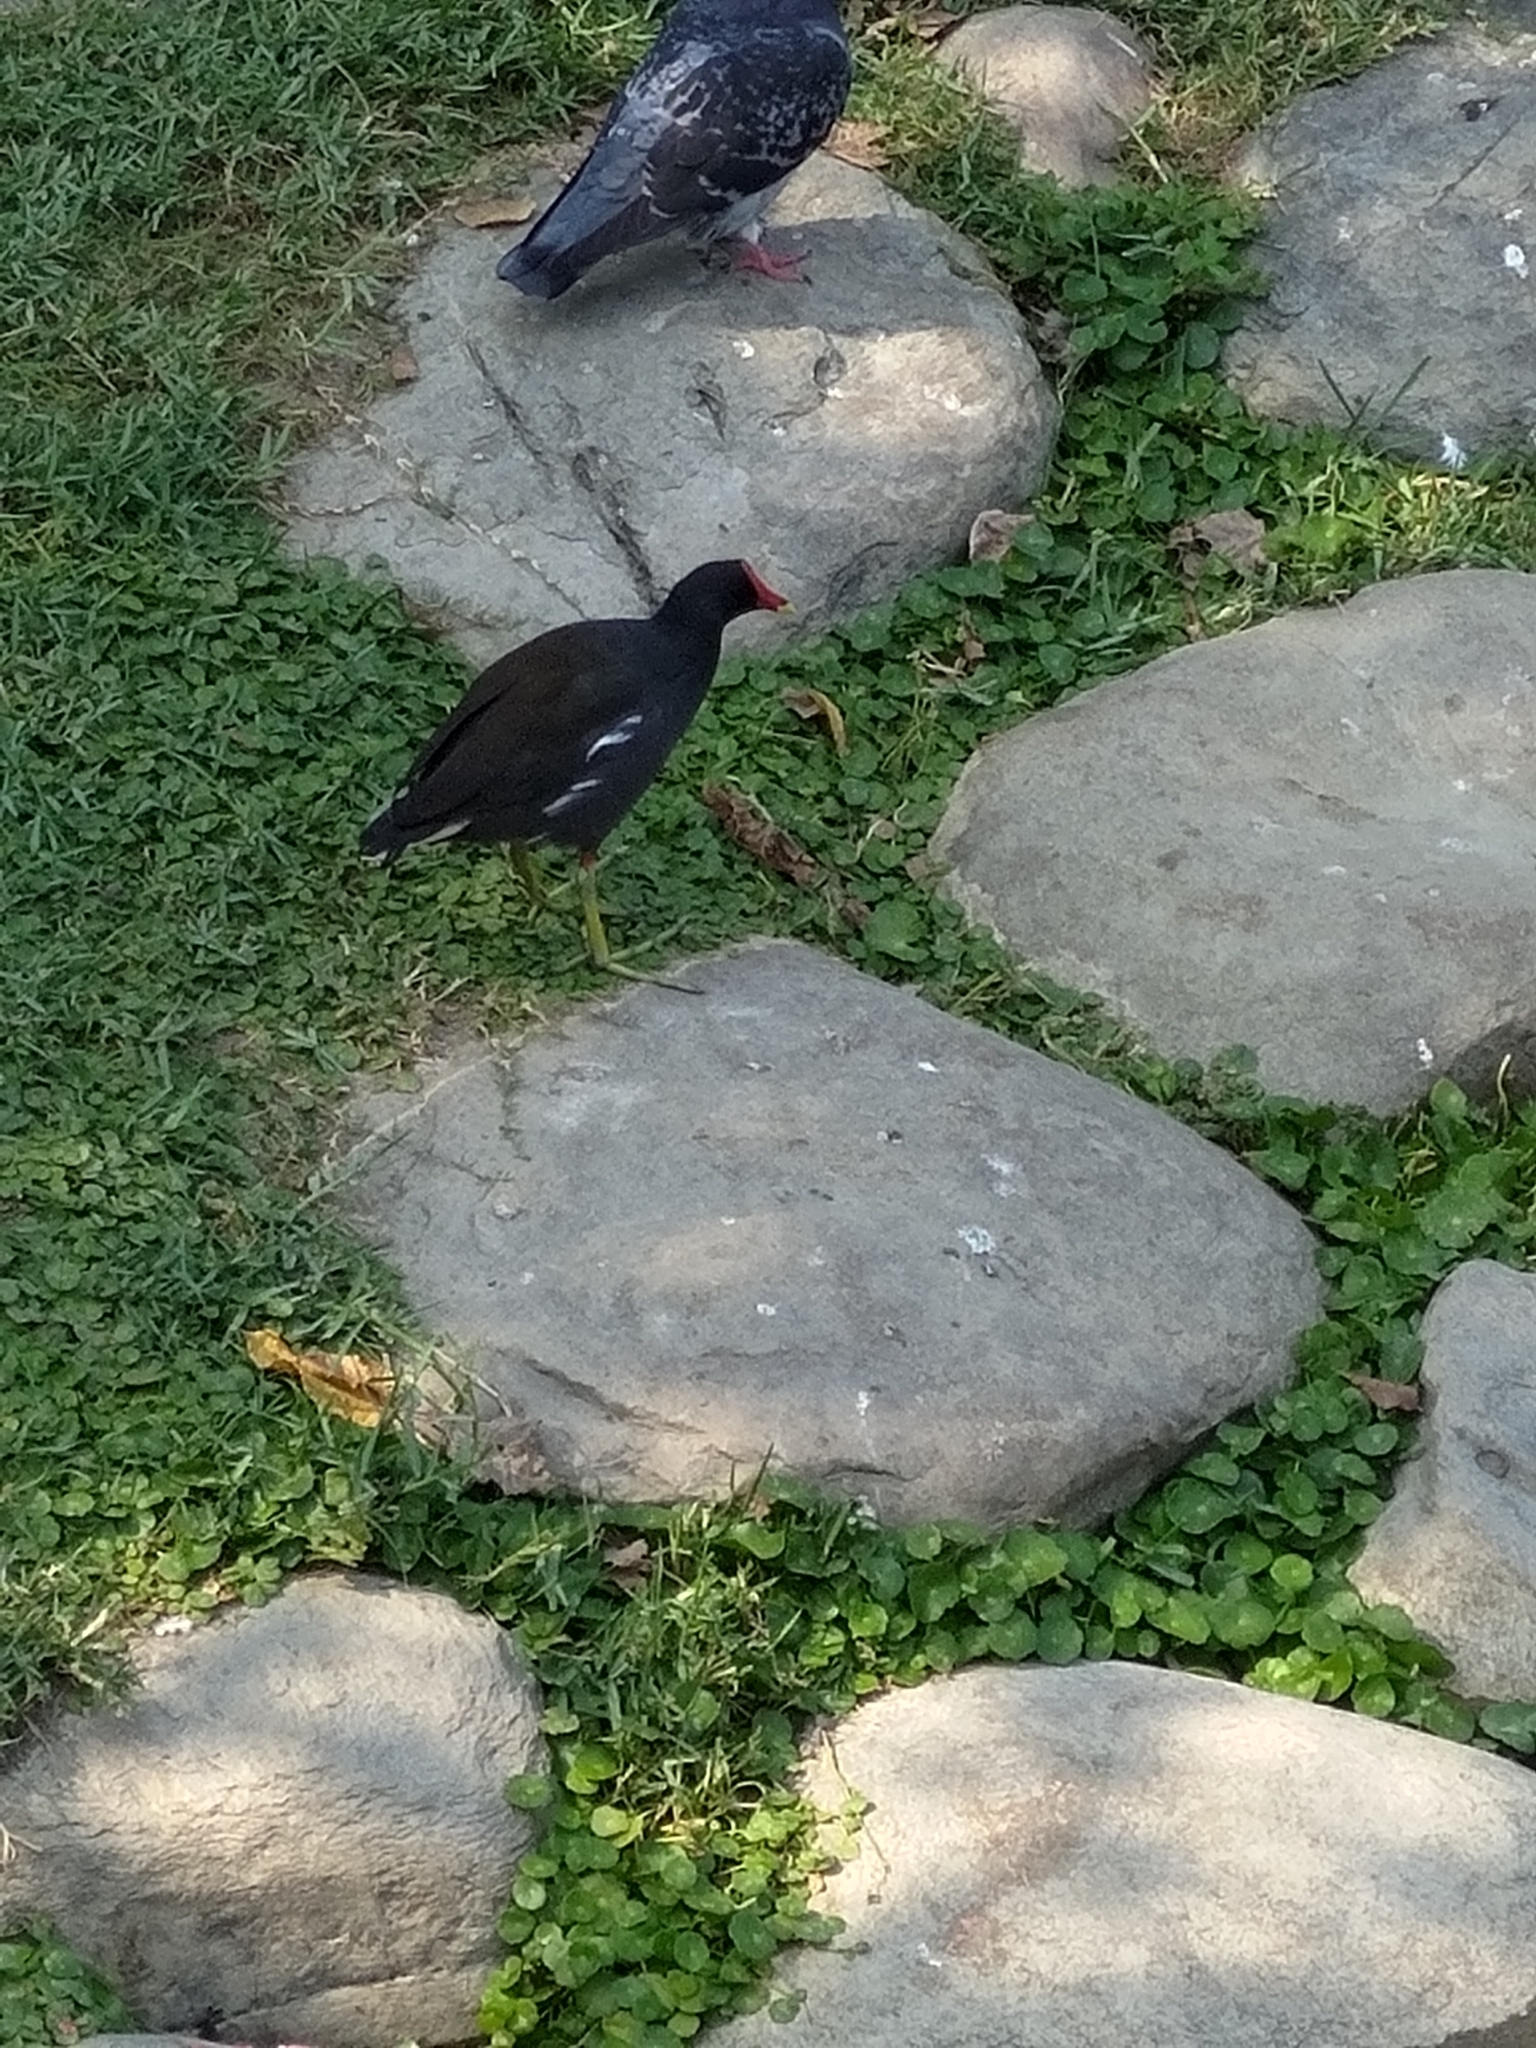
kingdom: Animalia
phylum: Chordata
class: Aves
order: Gruiformes
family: Rallidae
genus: Gallinula
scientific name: Gallinula chloropus
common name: Common moorhen
